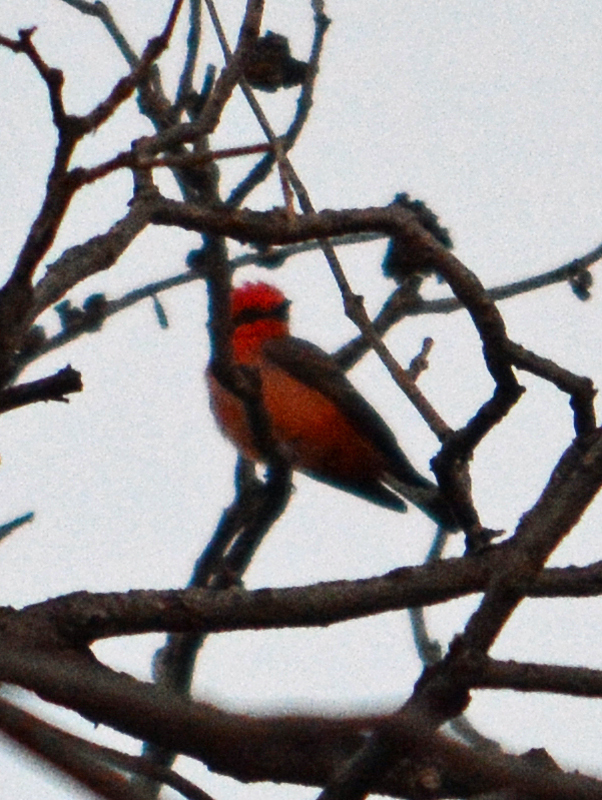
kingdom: Animalia
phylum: Chordata
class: Aves
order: Passeriformes
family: Tyrannidae
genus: Pyrocephalus
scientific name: Pyrocephalus rubinus
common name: Vermilion flycatcher
